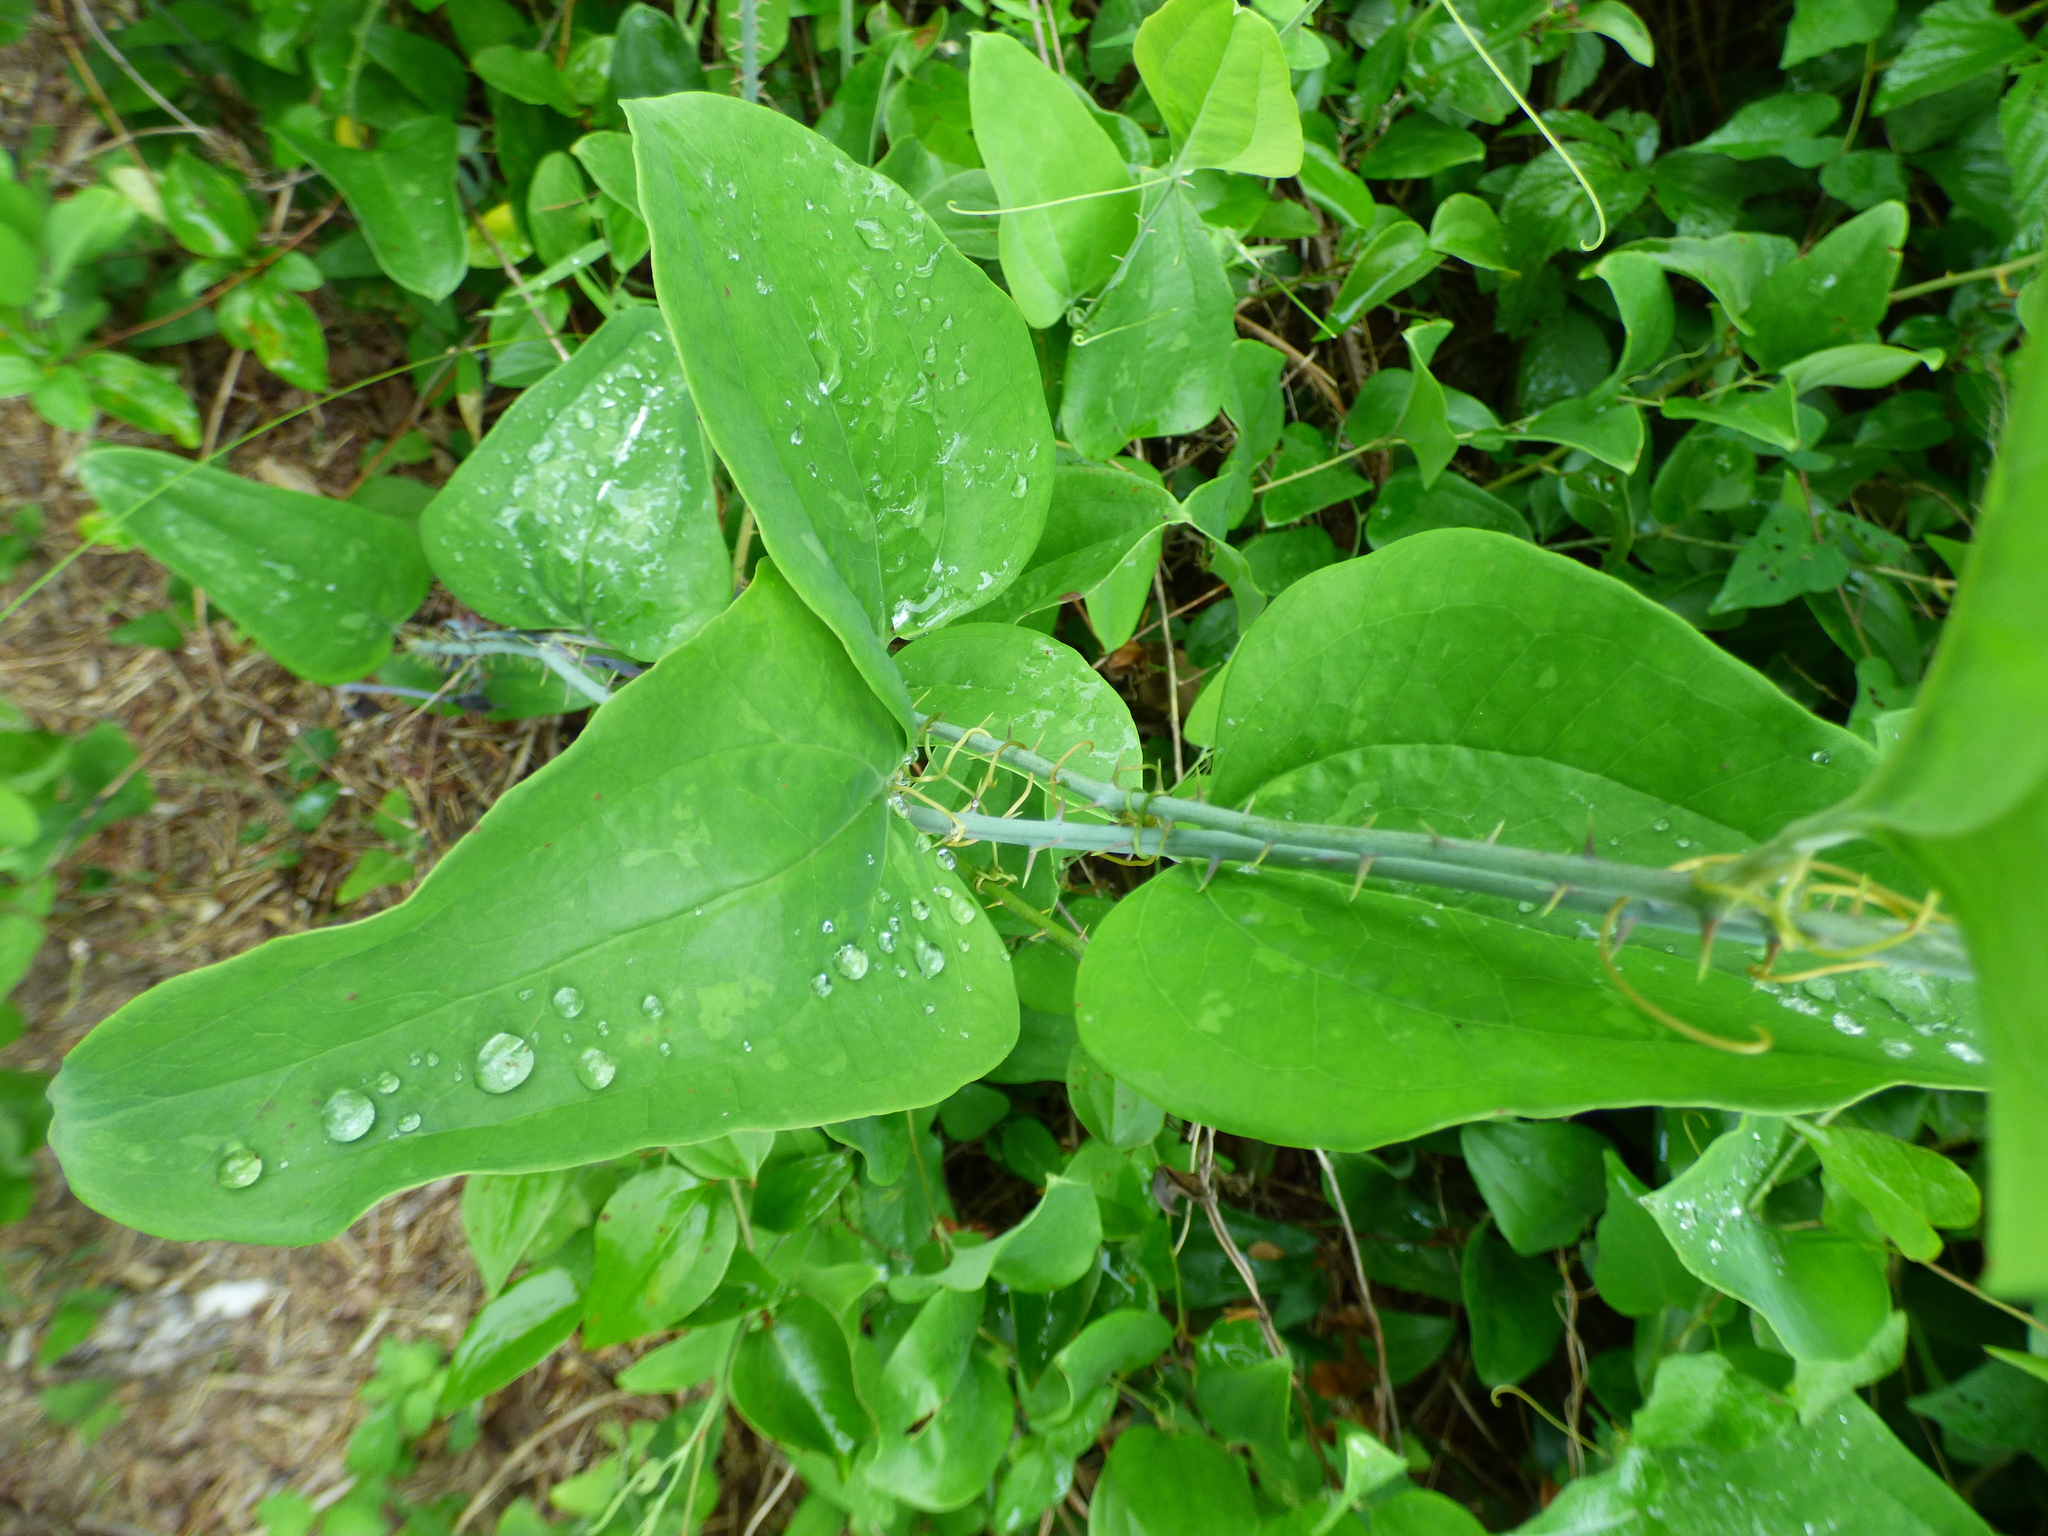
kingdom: Plantae
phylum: Tracheophyta
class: Liliopsida
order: Liliales
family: Smilacaceae
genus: Smilax
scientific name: Smilax glauca
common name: Cat greenbrier
